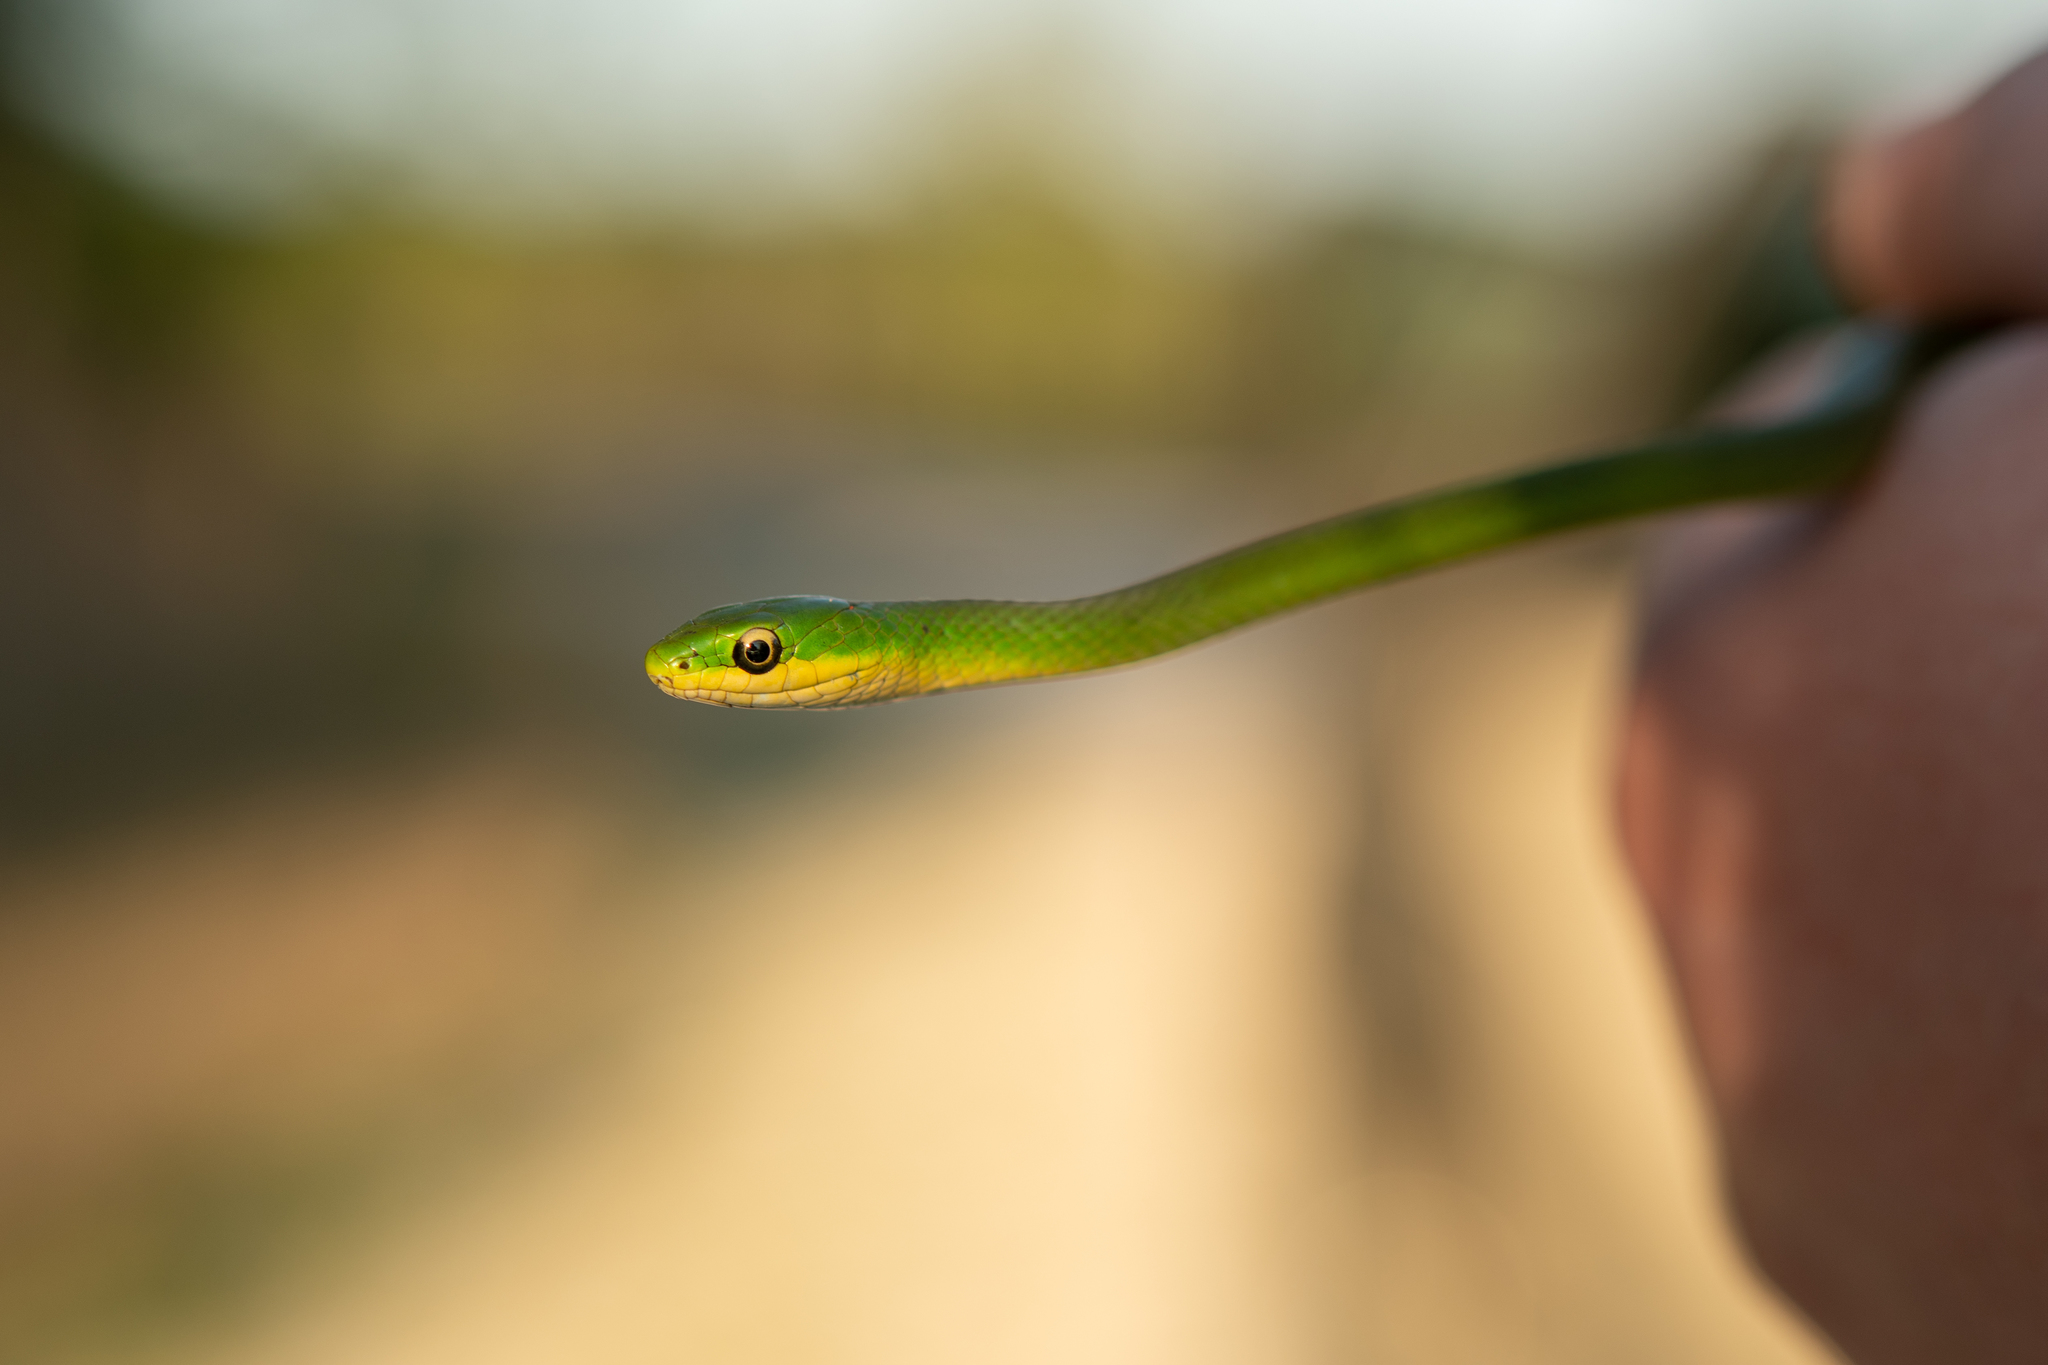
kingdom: Animalia
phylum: Chordata
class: Squamata
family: Colubridae
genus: Opheodrys
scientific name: Opheodrys aestivus
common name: Rough greensnake
